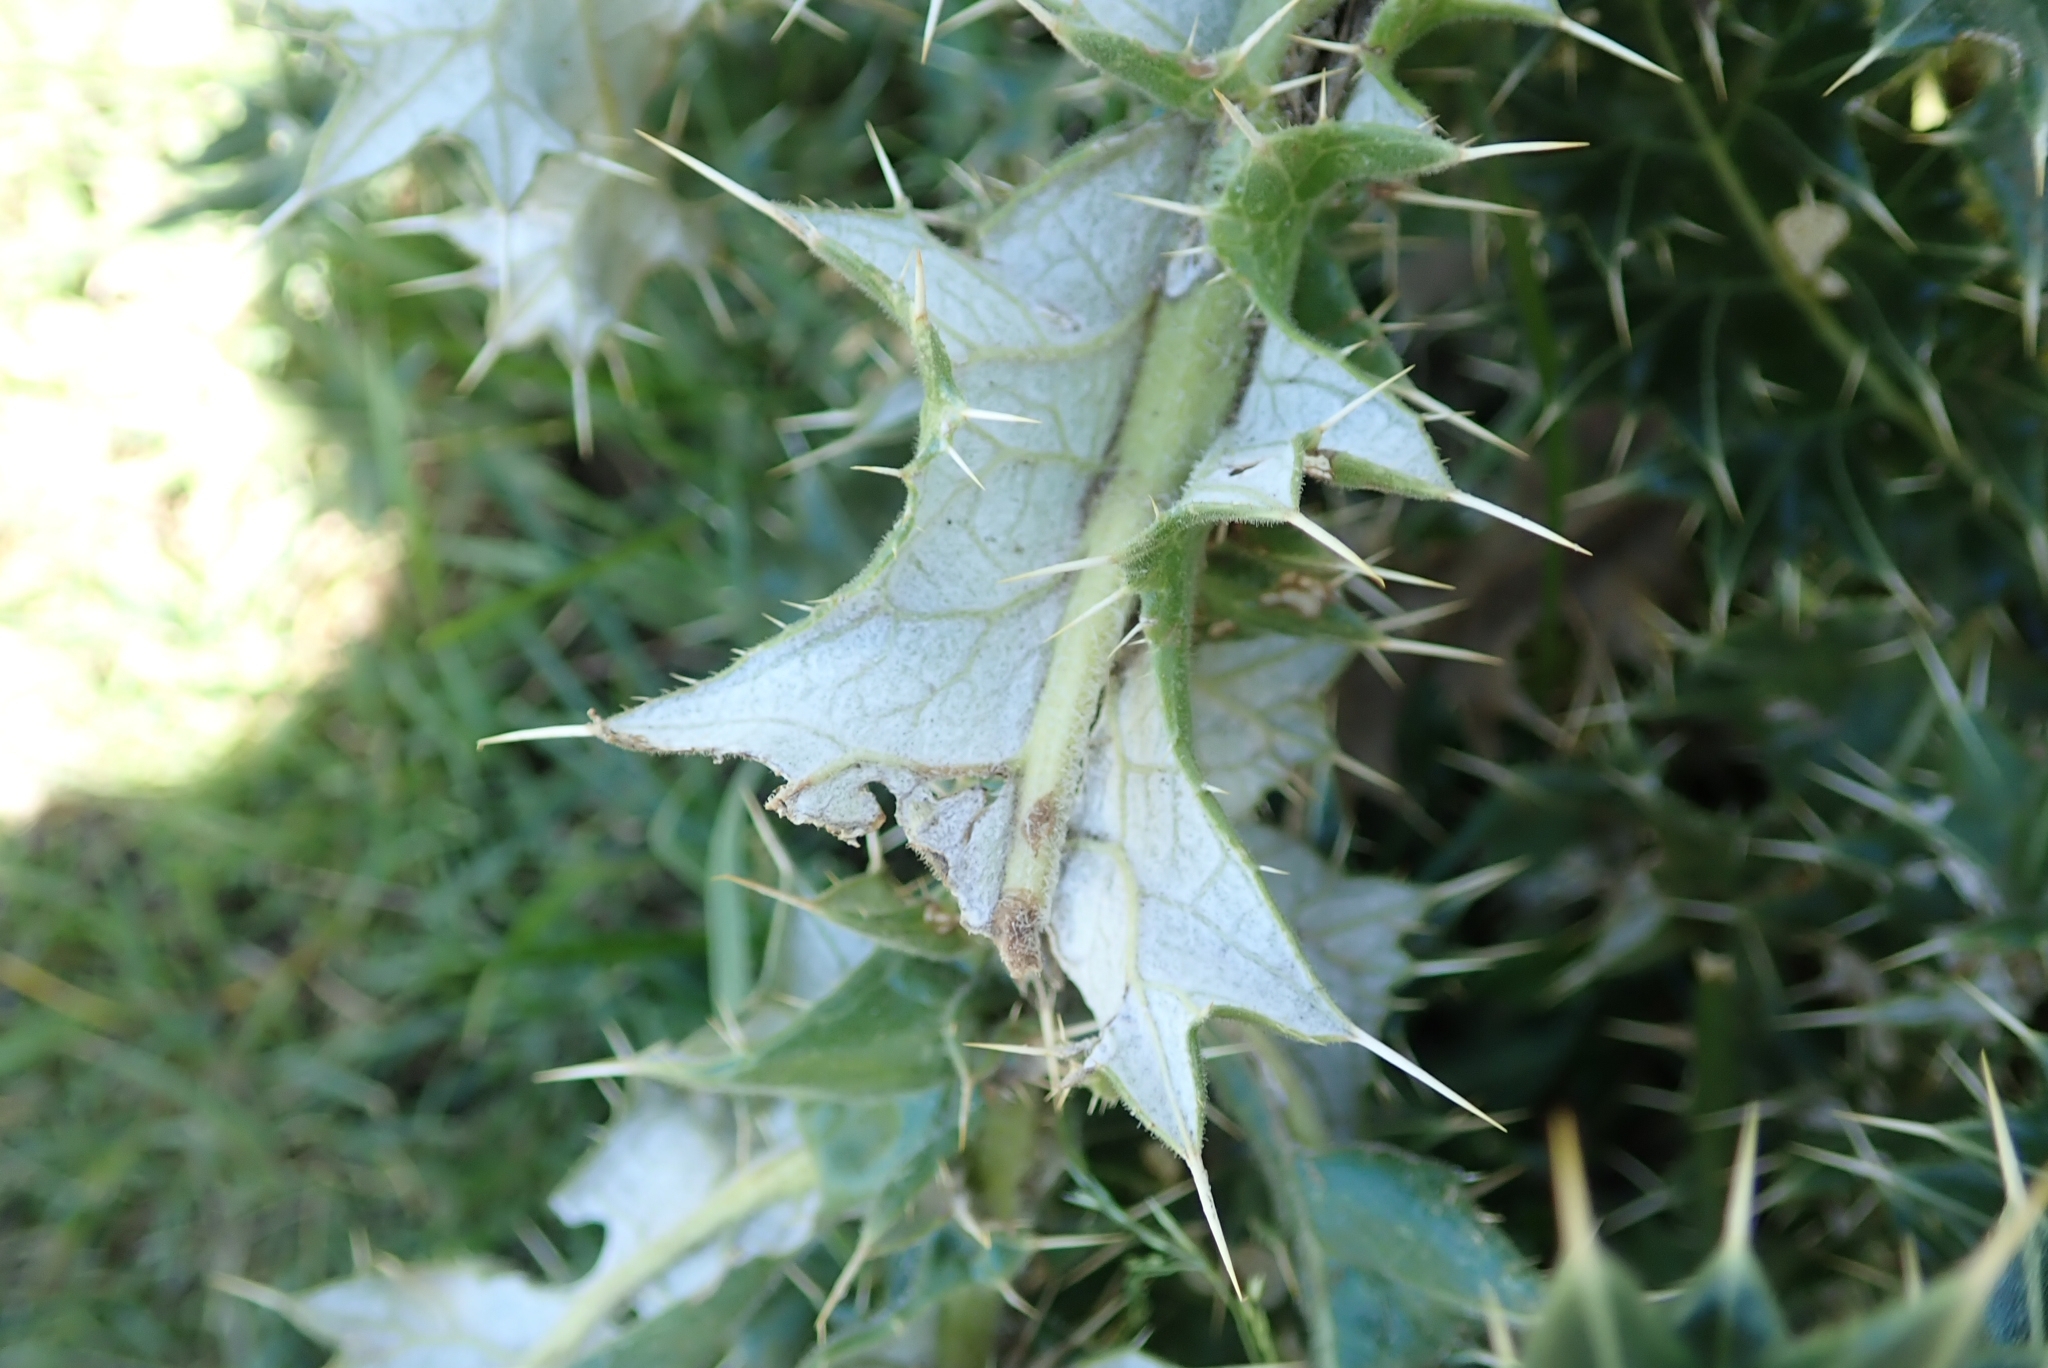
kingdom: Plantae
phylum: Tracheophyta
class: Magnoliopsida
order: Asterales
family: Asteraceae
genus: Berkheya
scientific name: Berkheya cirsiifolia
